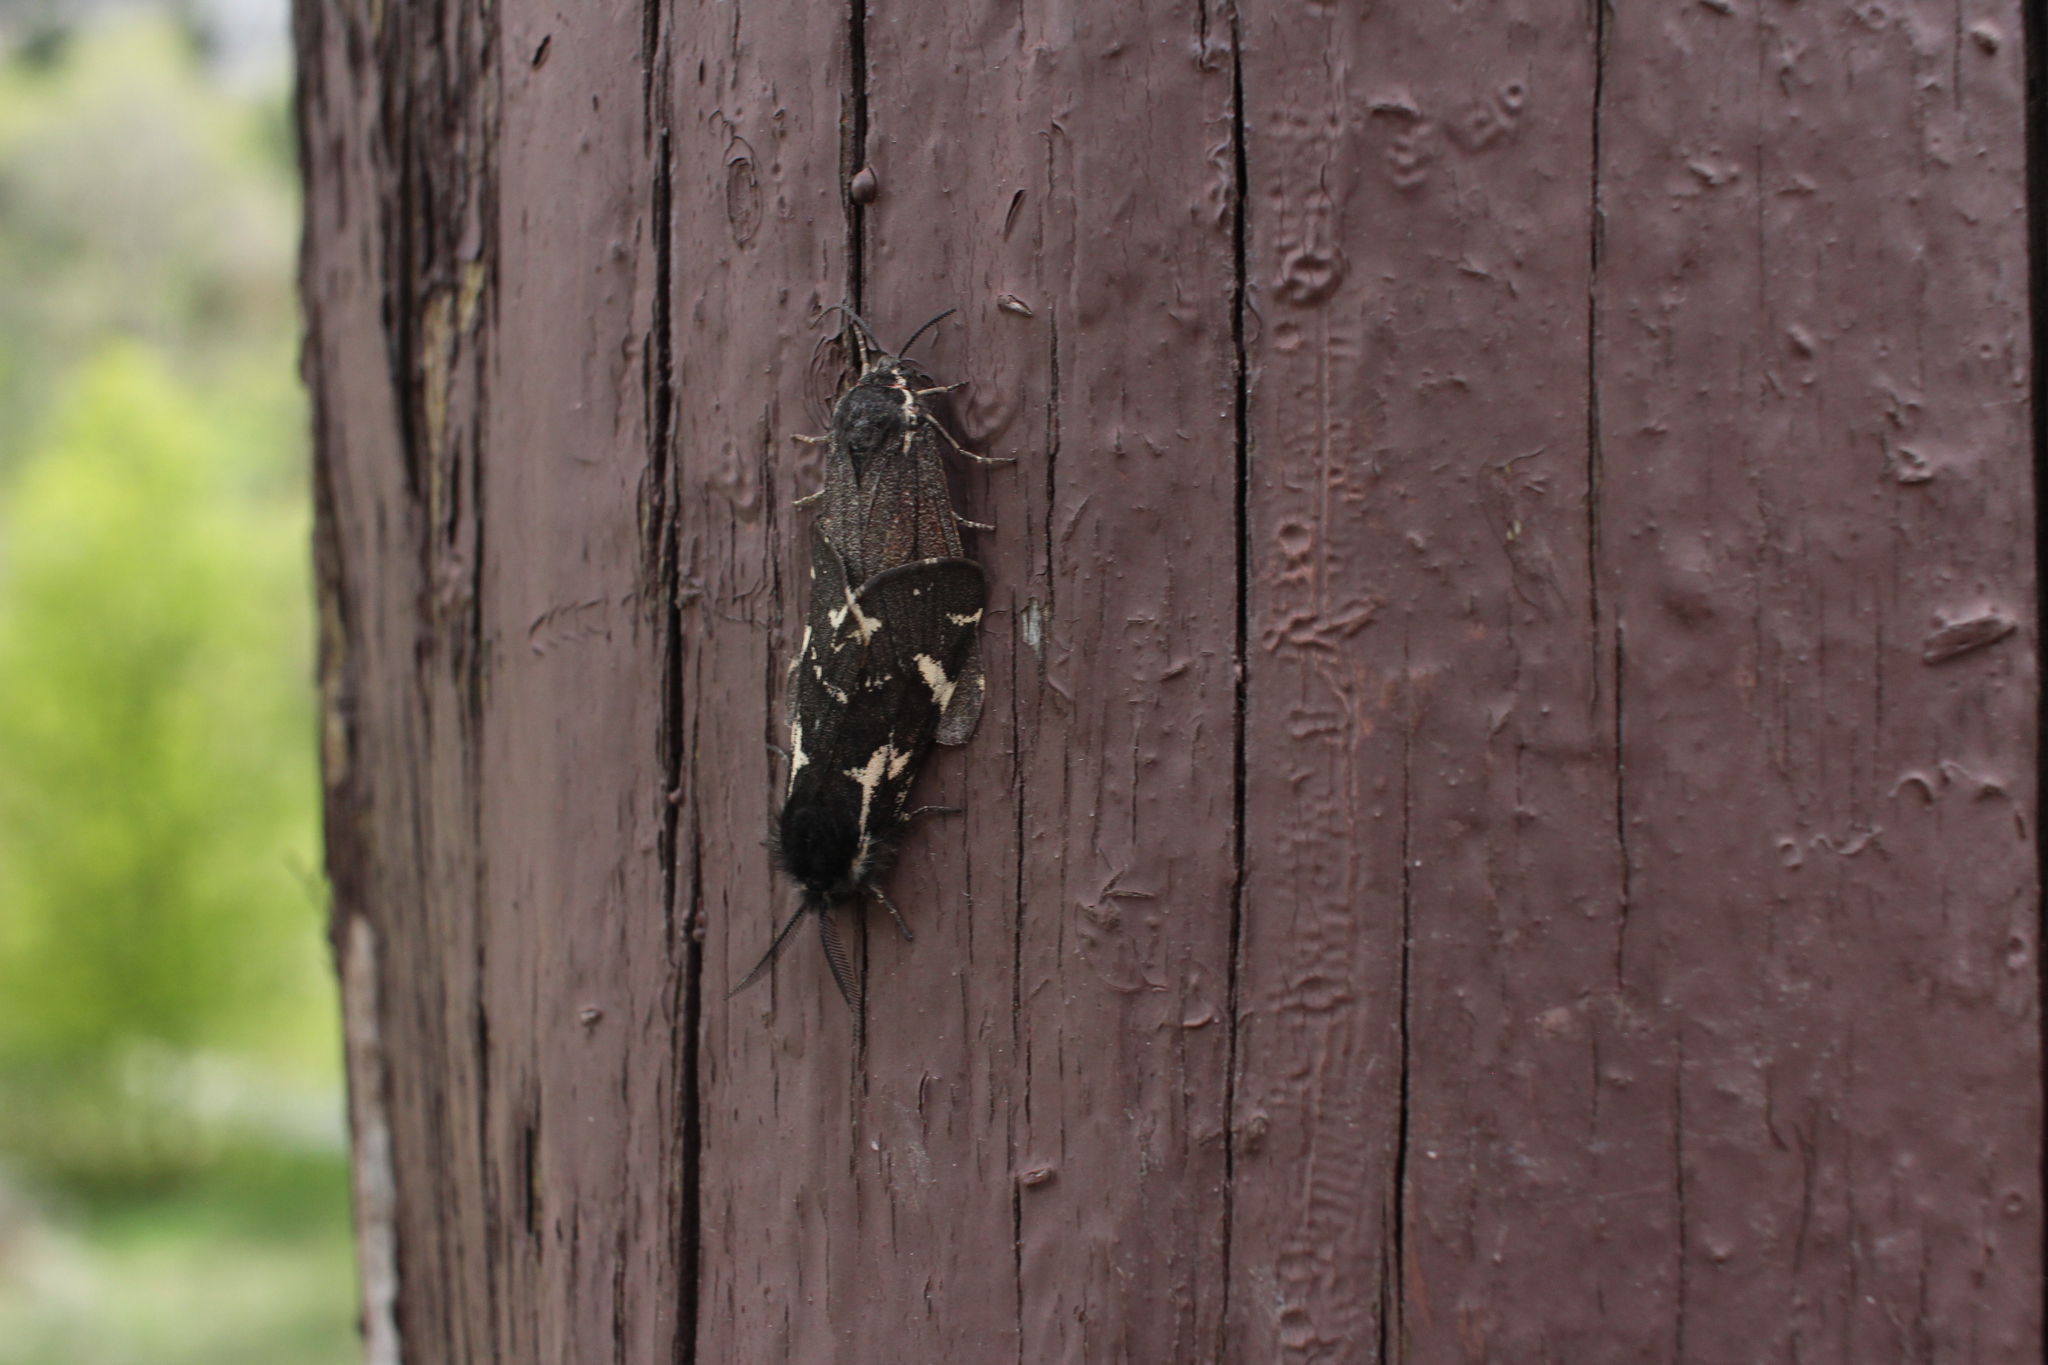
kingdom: Animalia
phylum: Arthropoda
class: Insecta
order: Lepidoptera
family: Erebidae
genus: Leptarctia
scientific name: Leptarctia californiae
